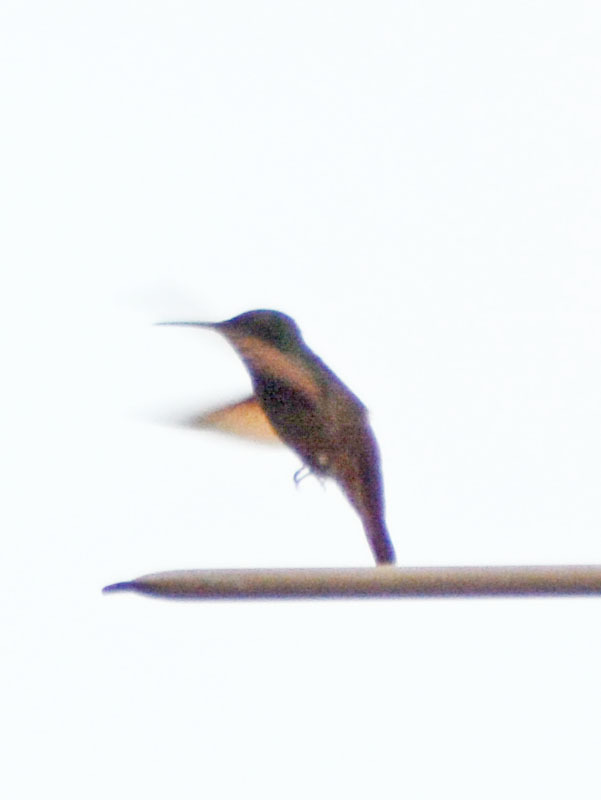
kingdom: Animalia
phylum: Chordata
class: Aves
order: Apodiformes
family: Trochilidae
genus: Saucerottia
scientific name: Saucerottia beryllina
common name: Berylline hummingbird
